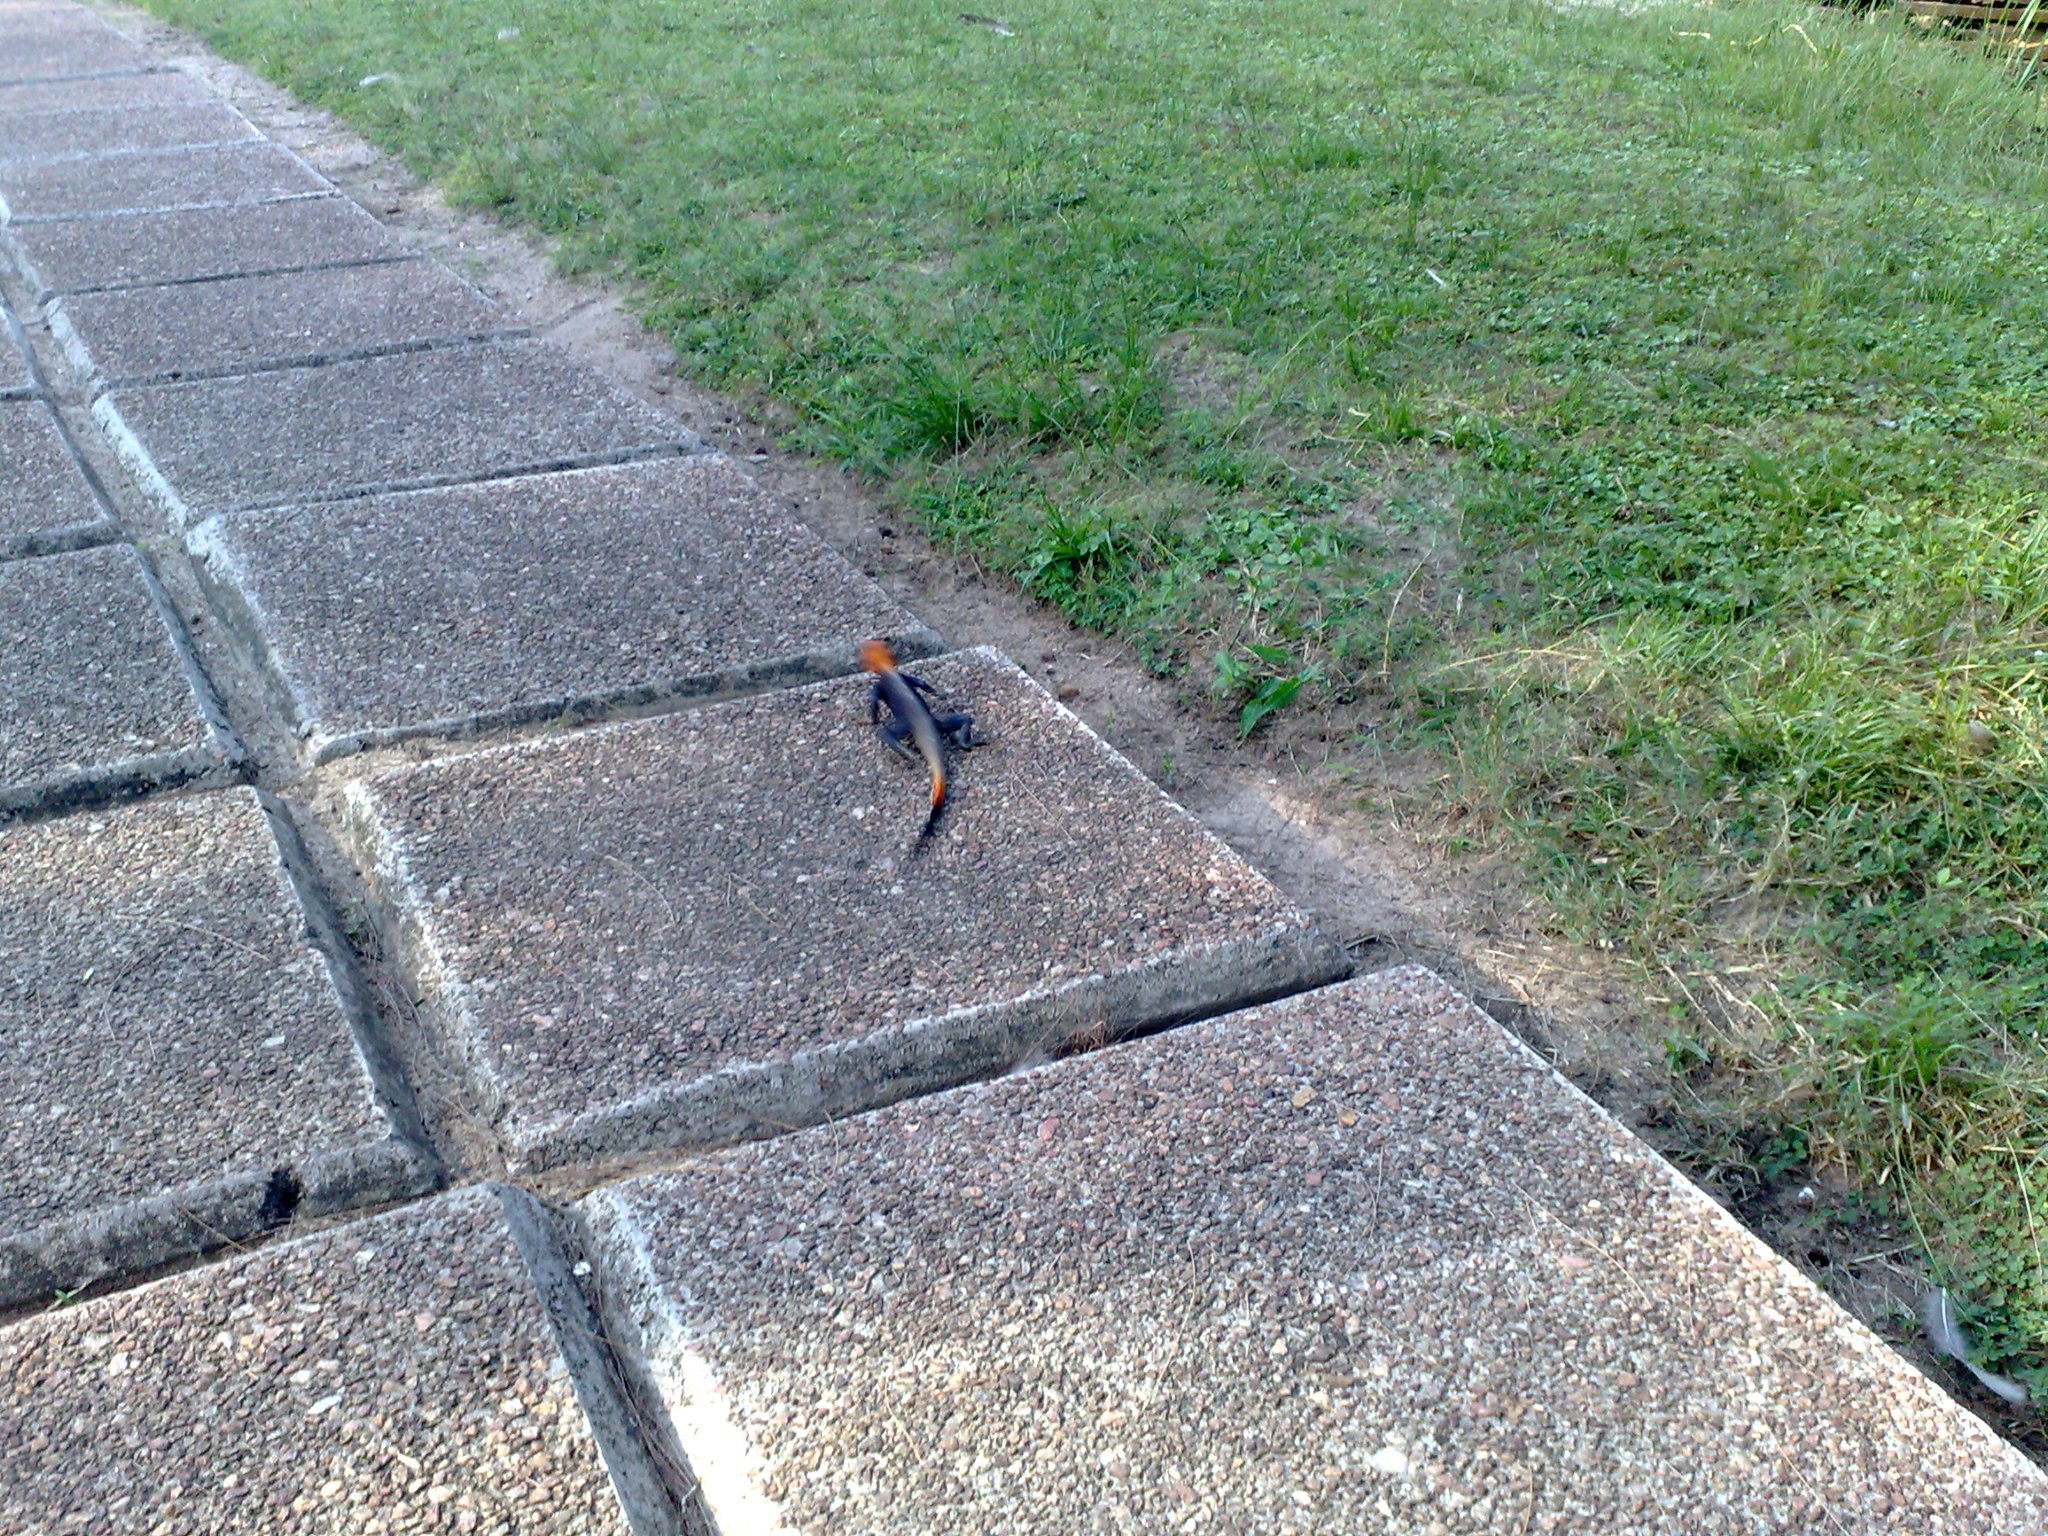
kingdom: Animalia
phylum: Chordata
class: Squamata
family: Agamidae
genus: Agama
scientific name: Agama agama
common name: Common agama
